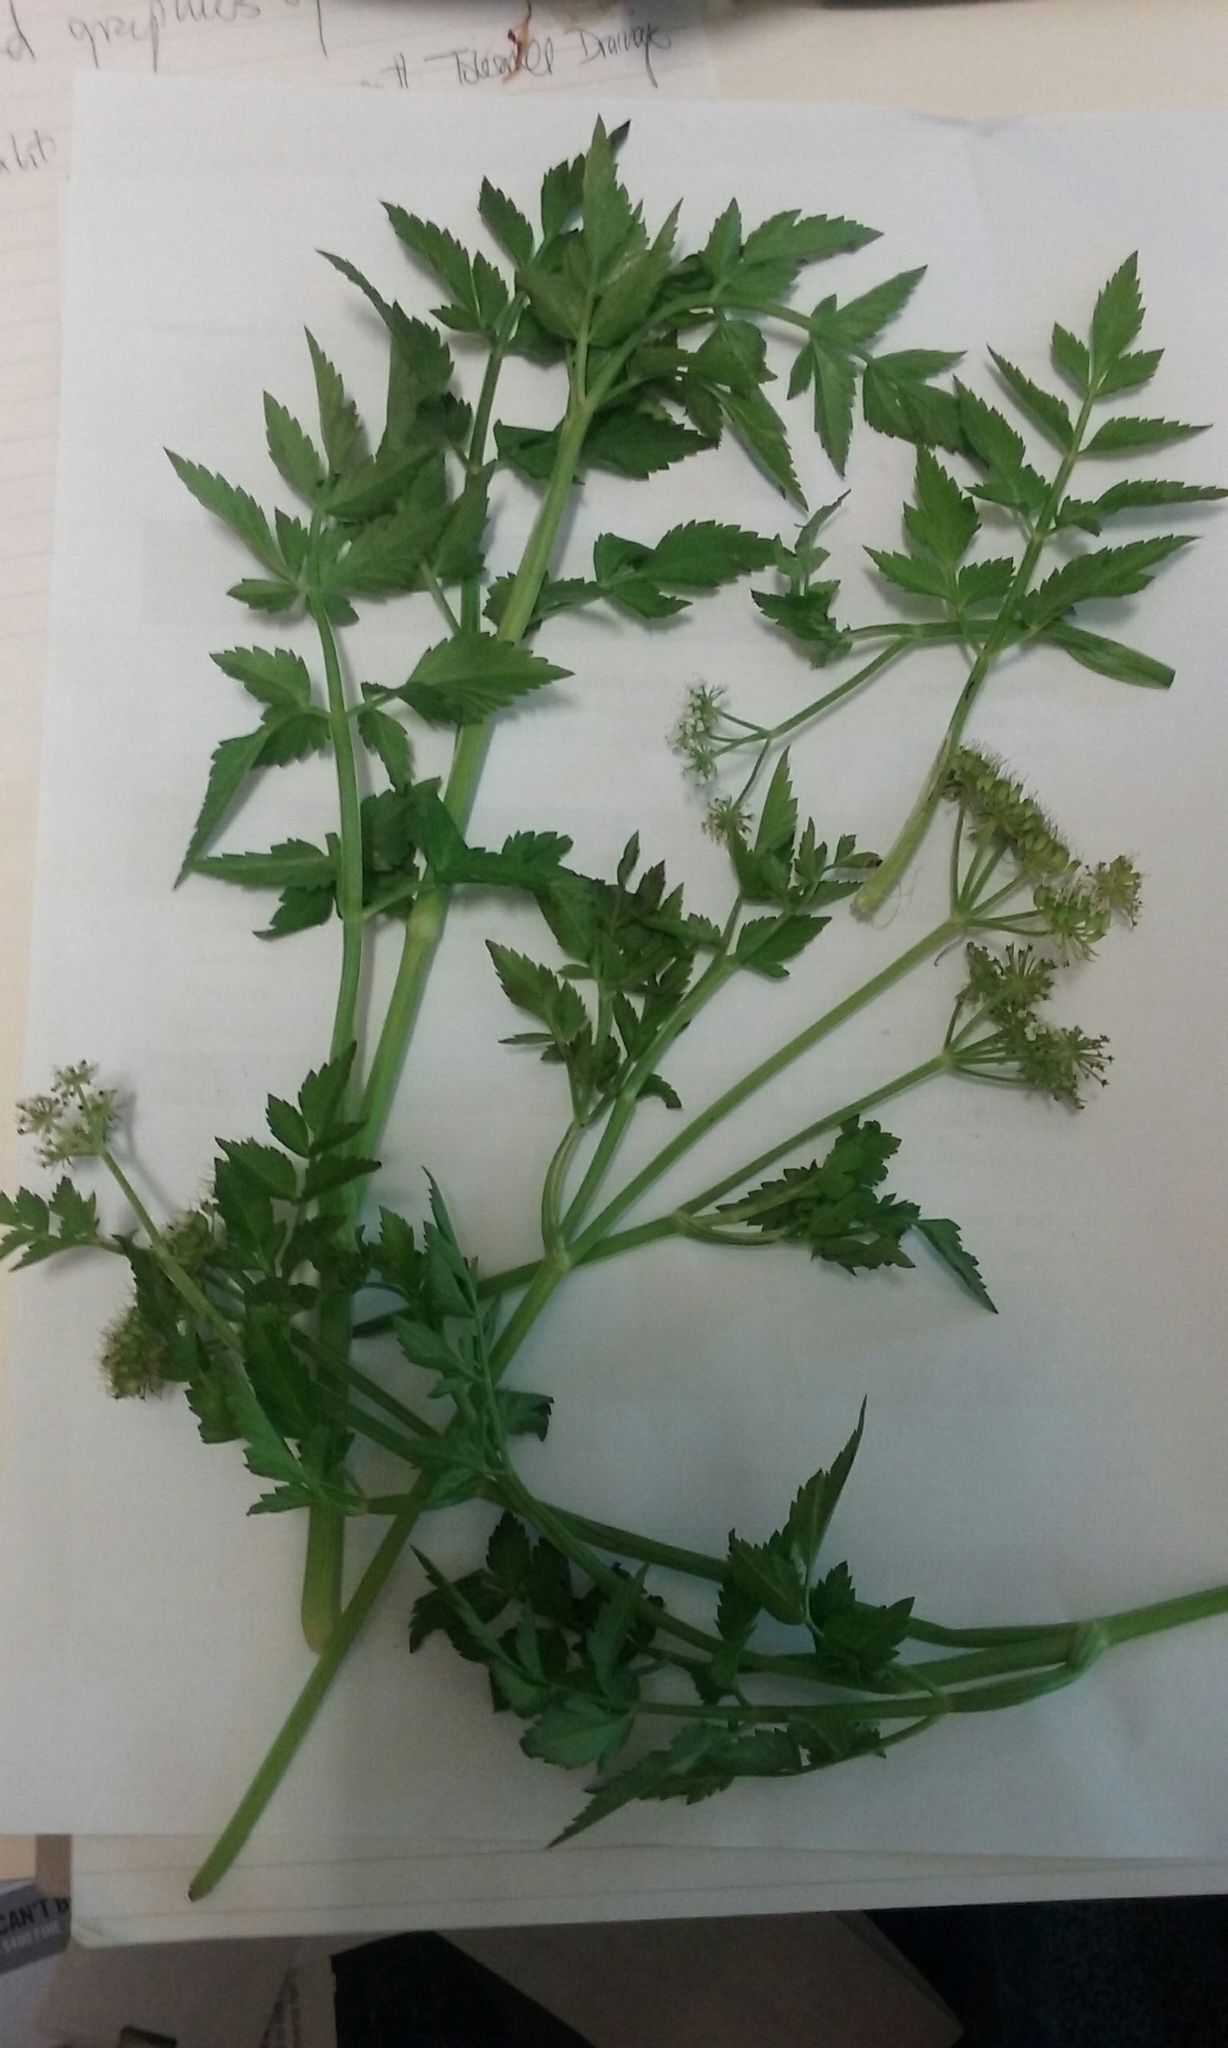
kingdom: Plantae
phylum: Tracheophyta
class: Magnoliopsida
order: Apiales
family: Apiaceae
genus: Oenanthe
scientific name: Oenanthe javanica
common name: Java water-dropwort
